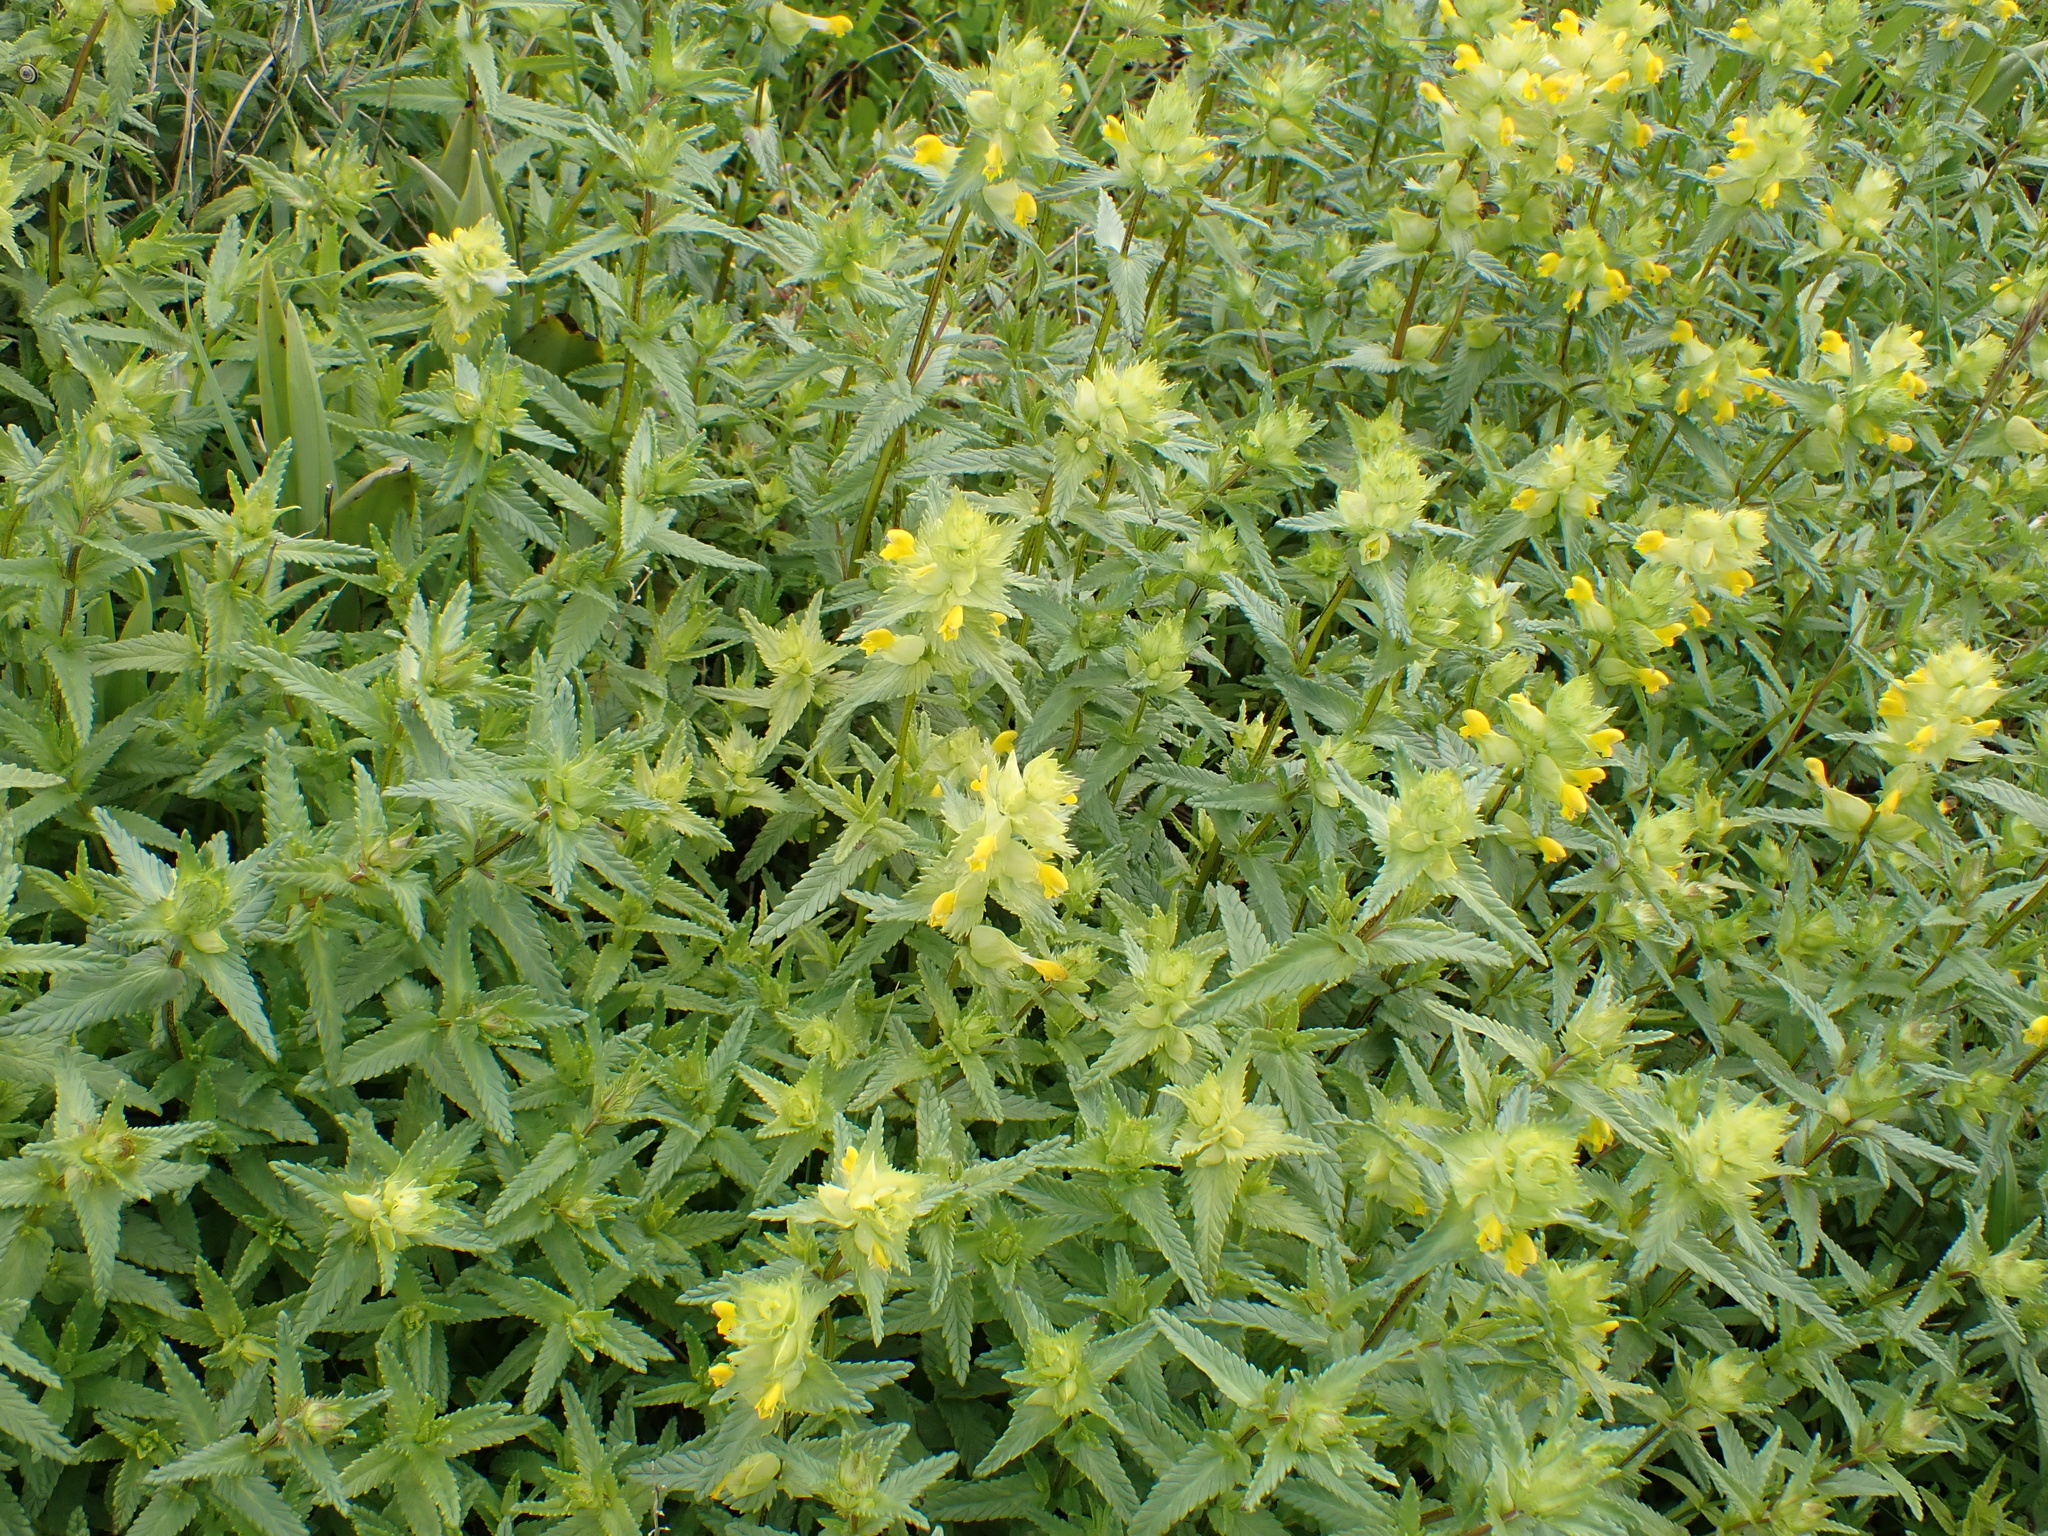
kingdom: Plantae
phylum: Tracheophyta
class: Magnoliopsida
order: Lamiales
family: Orobanchaceae
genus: Rhinanthus
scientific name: Rhinanthus minor
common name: Yellow-rattle
